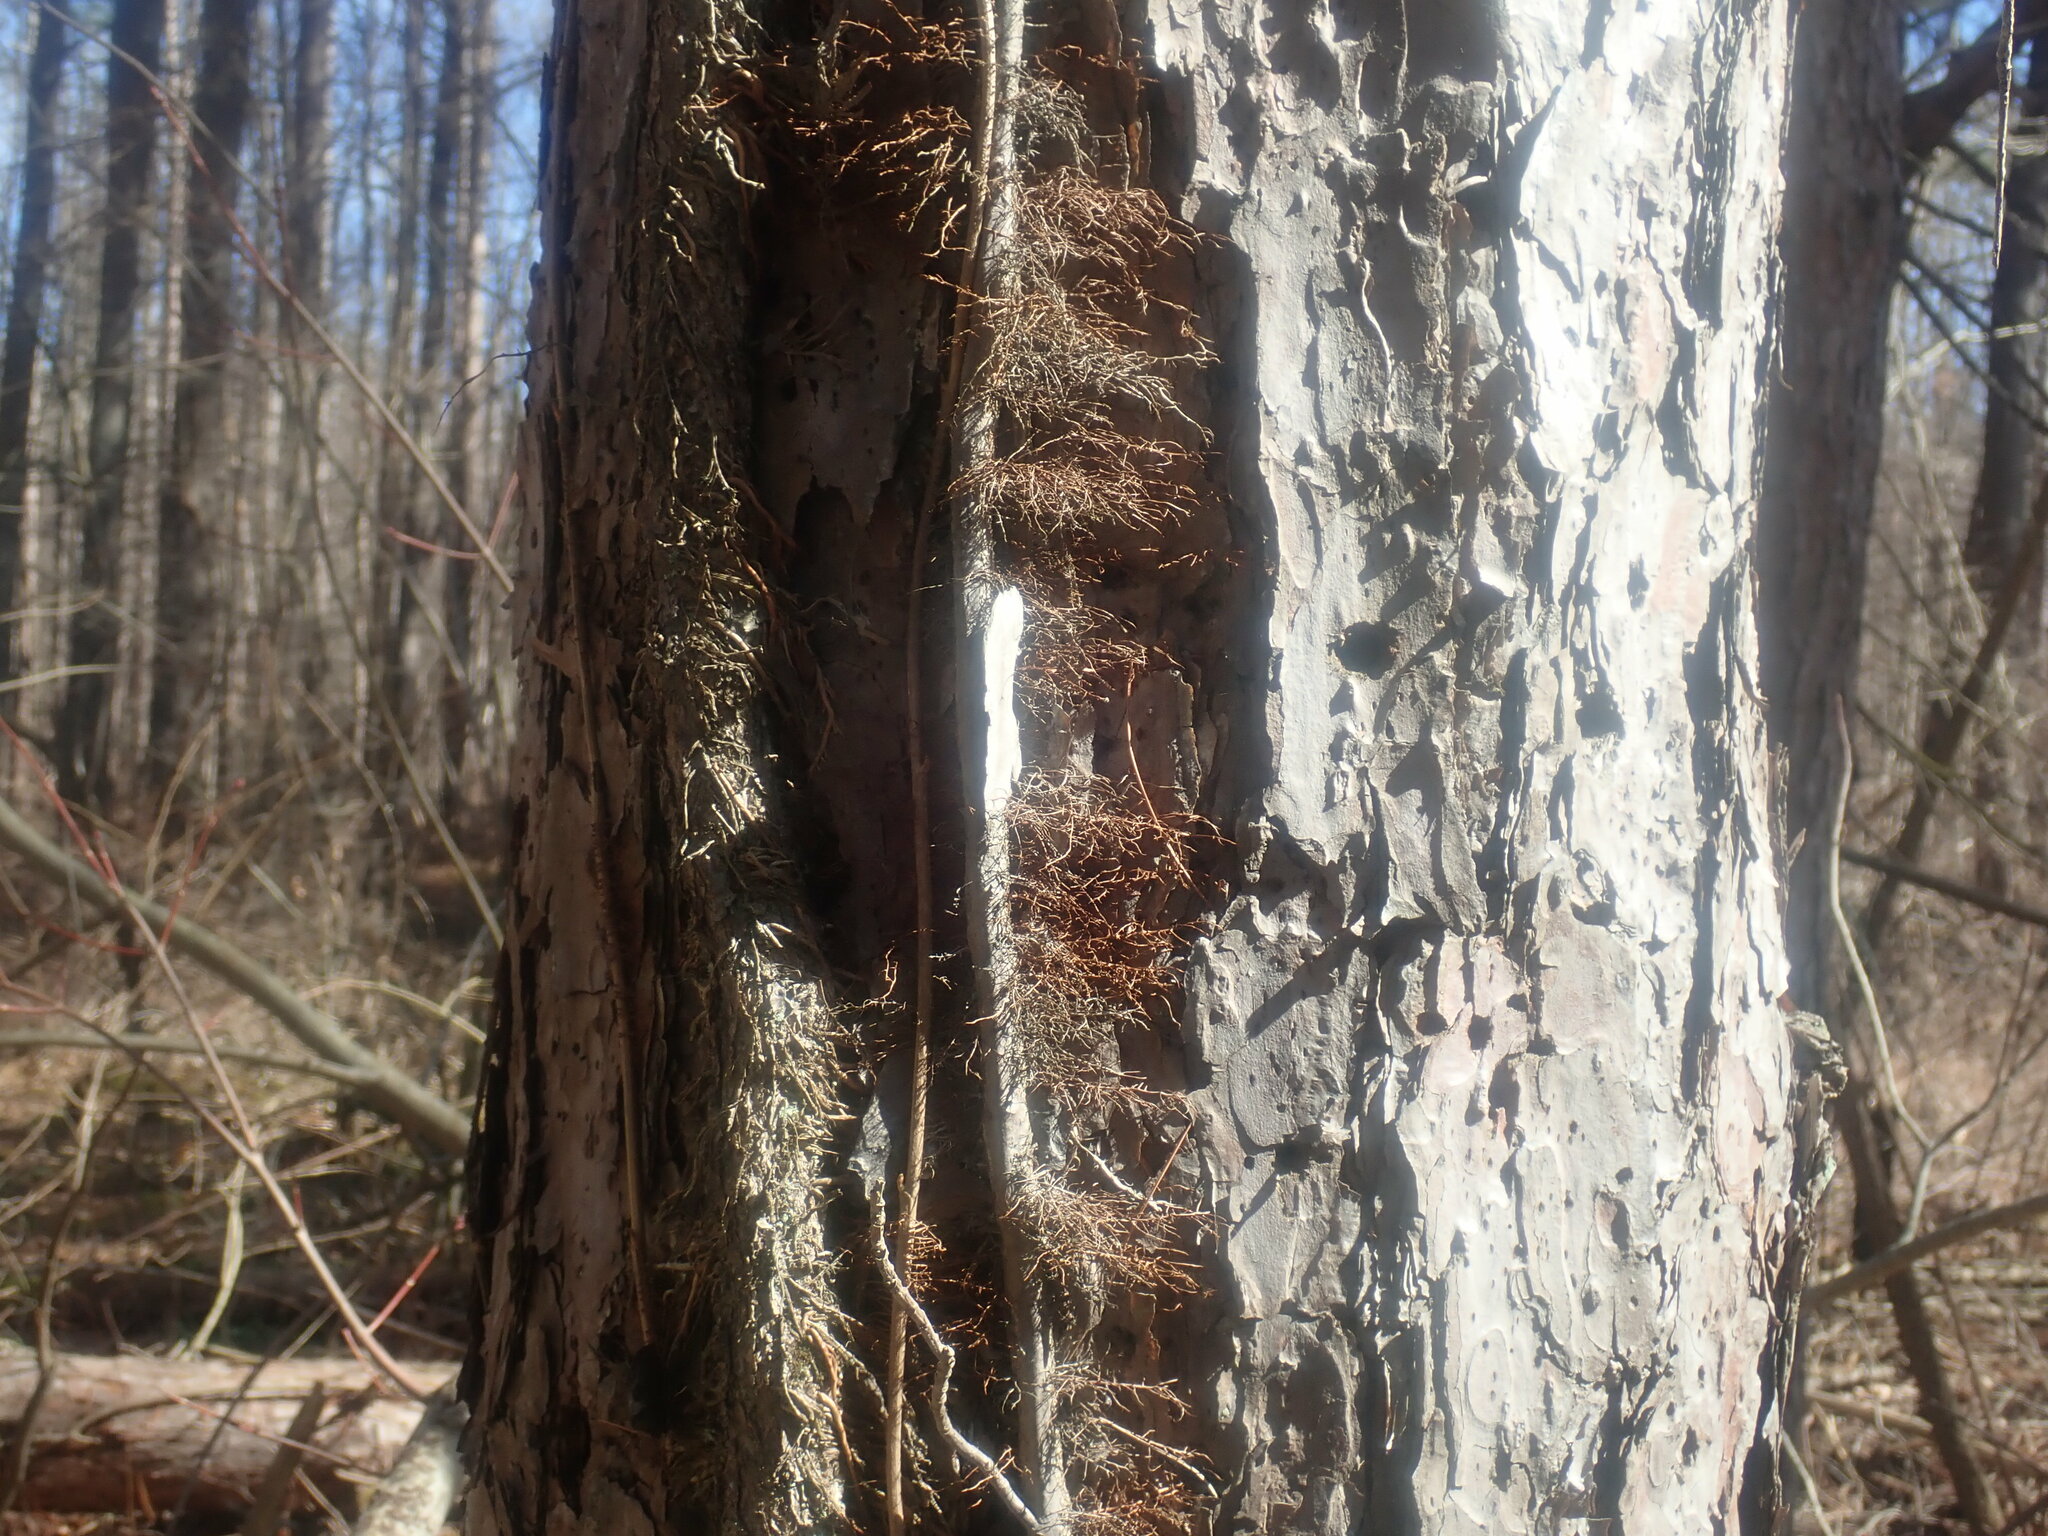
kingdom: Plantae
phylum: Tracheophyta
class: Magnoliopsida
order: Sapindales
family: Anacardiaceae
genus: Toxicodendron
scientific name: Toxicodendron radicans
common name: Poison ivy
